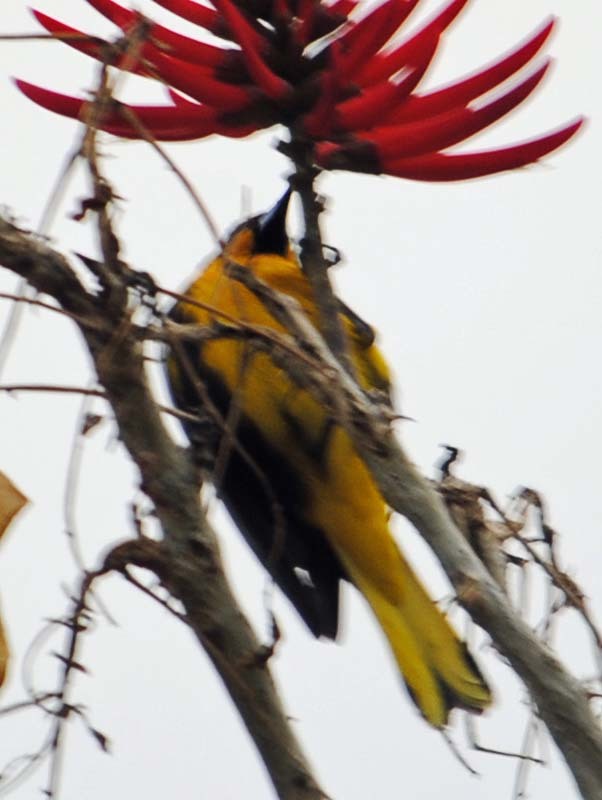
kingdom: Animalia
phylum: Chordata
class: Aves
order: Passeriformes
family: Icteridae
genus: Icterus
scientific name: Icterus abeillei
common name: Black-backed oriole
